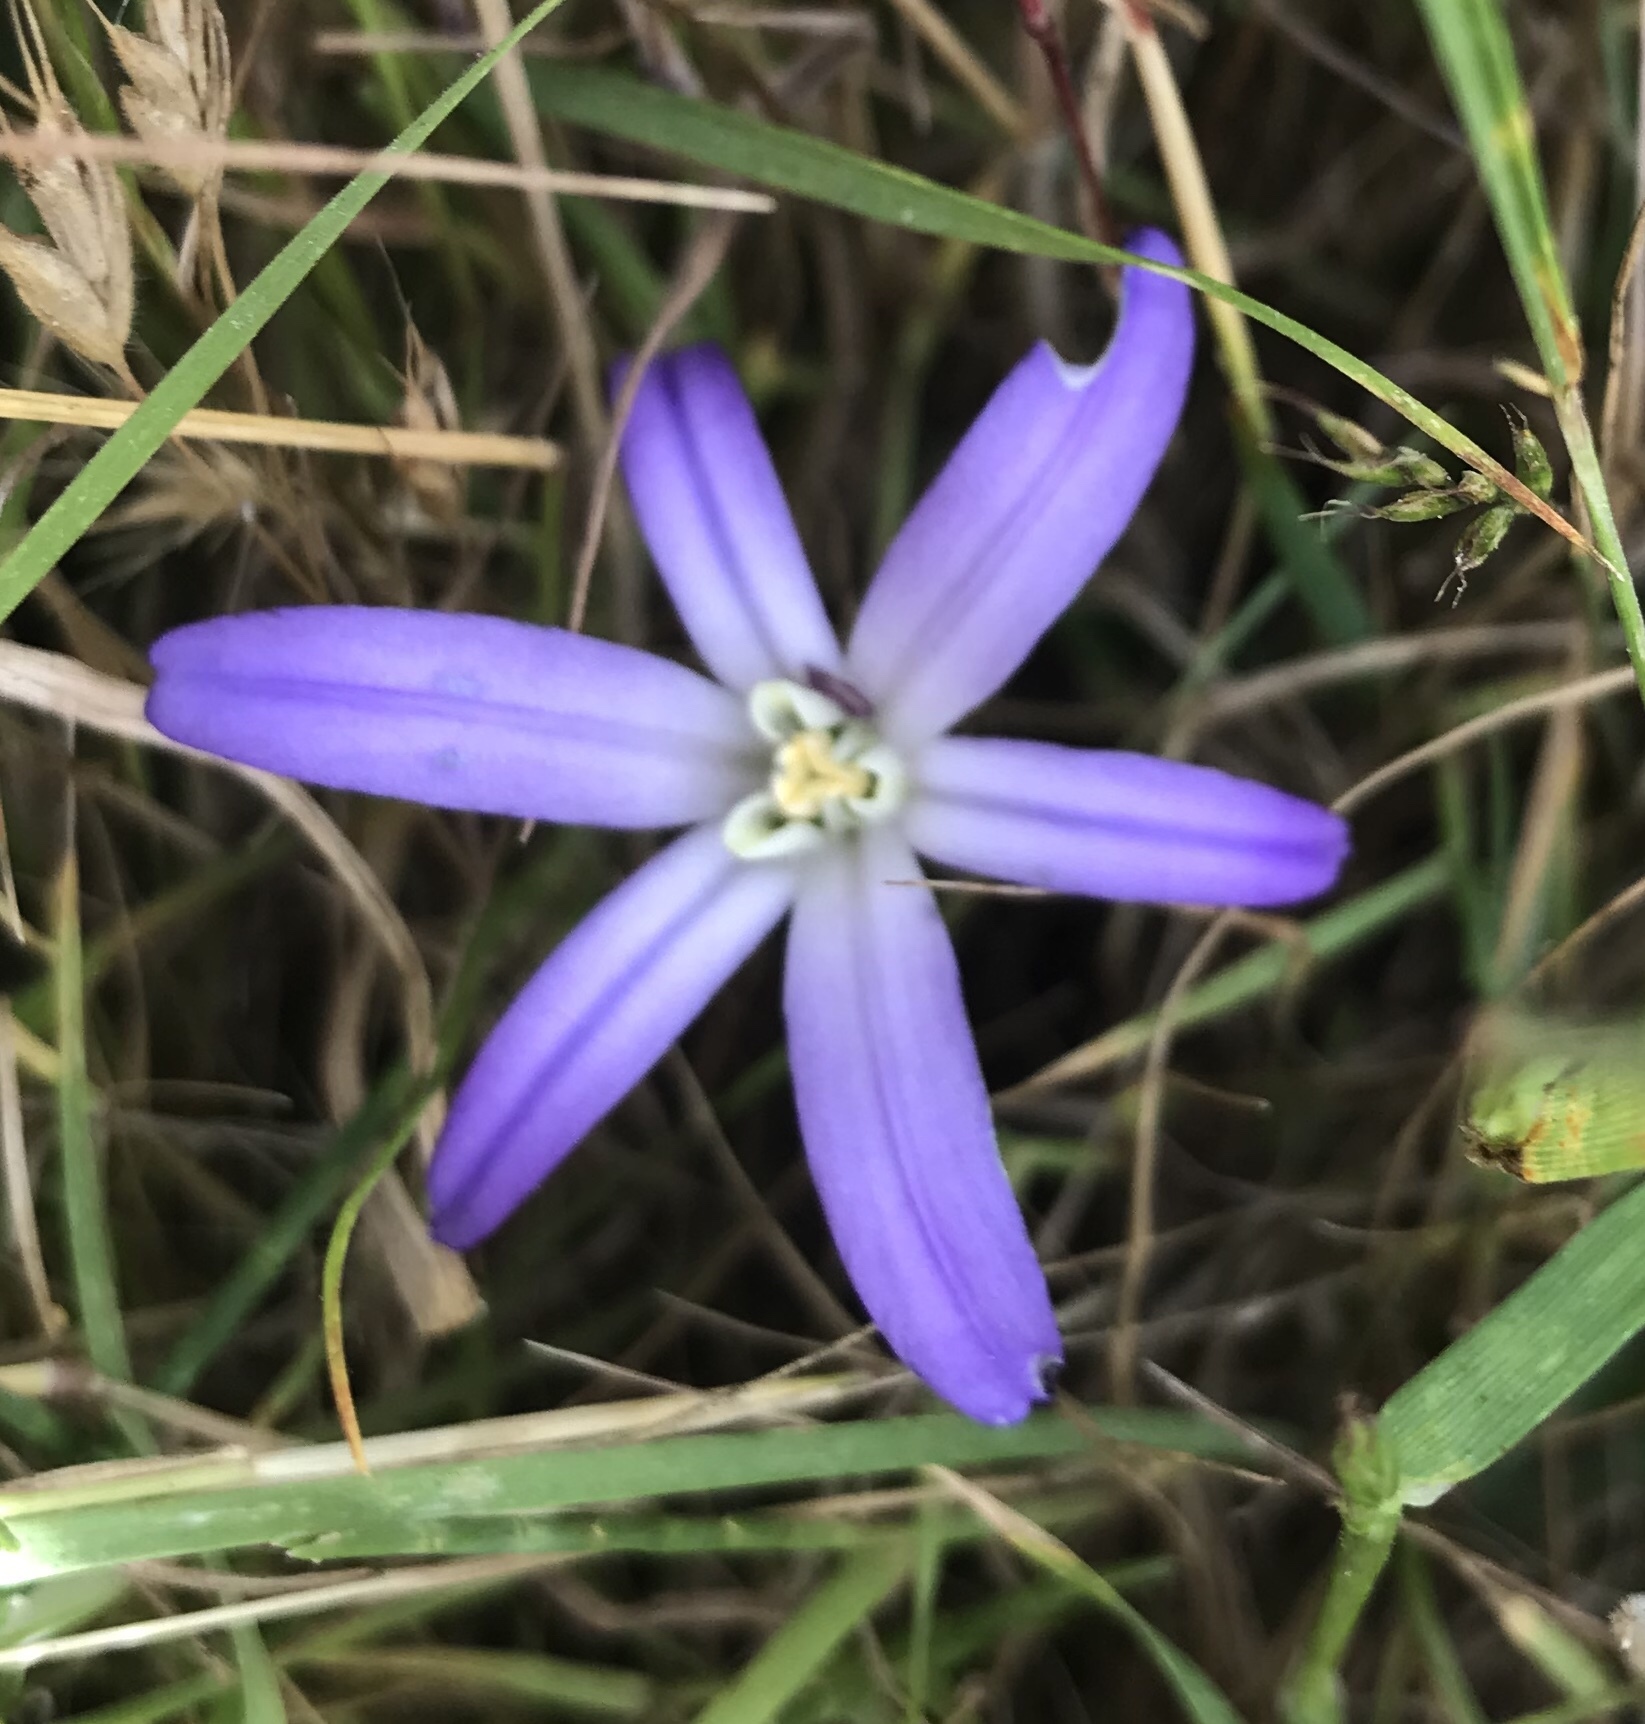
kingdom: Plantae
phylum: Tracheophyta
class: Liliopsida
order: Asparagales
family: Asparagaceae
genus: Brodiaea
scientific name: Brodiaea terrestris
